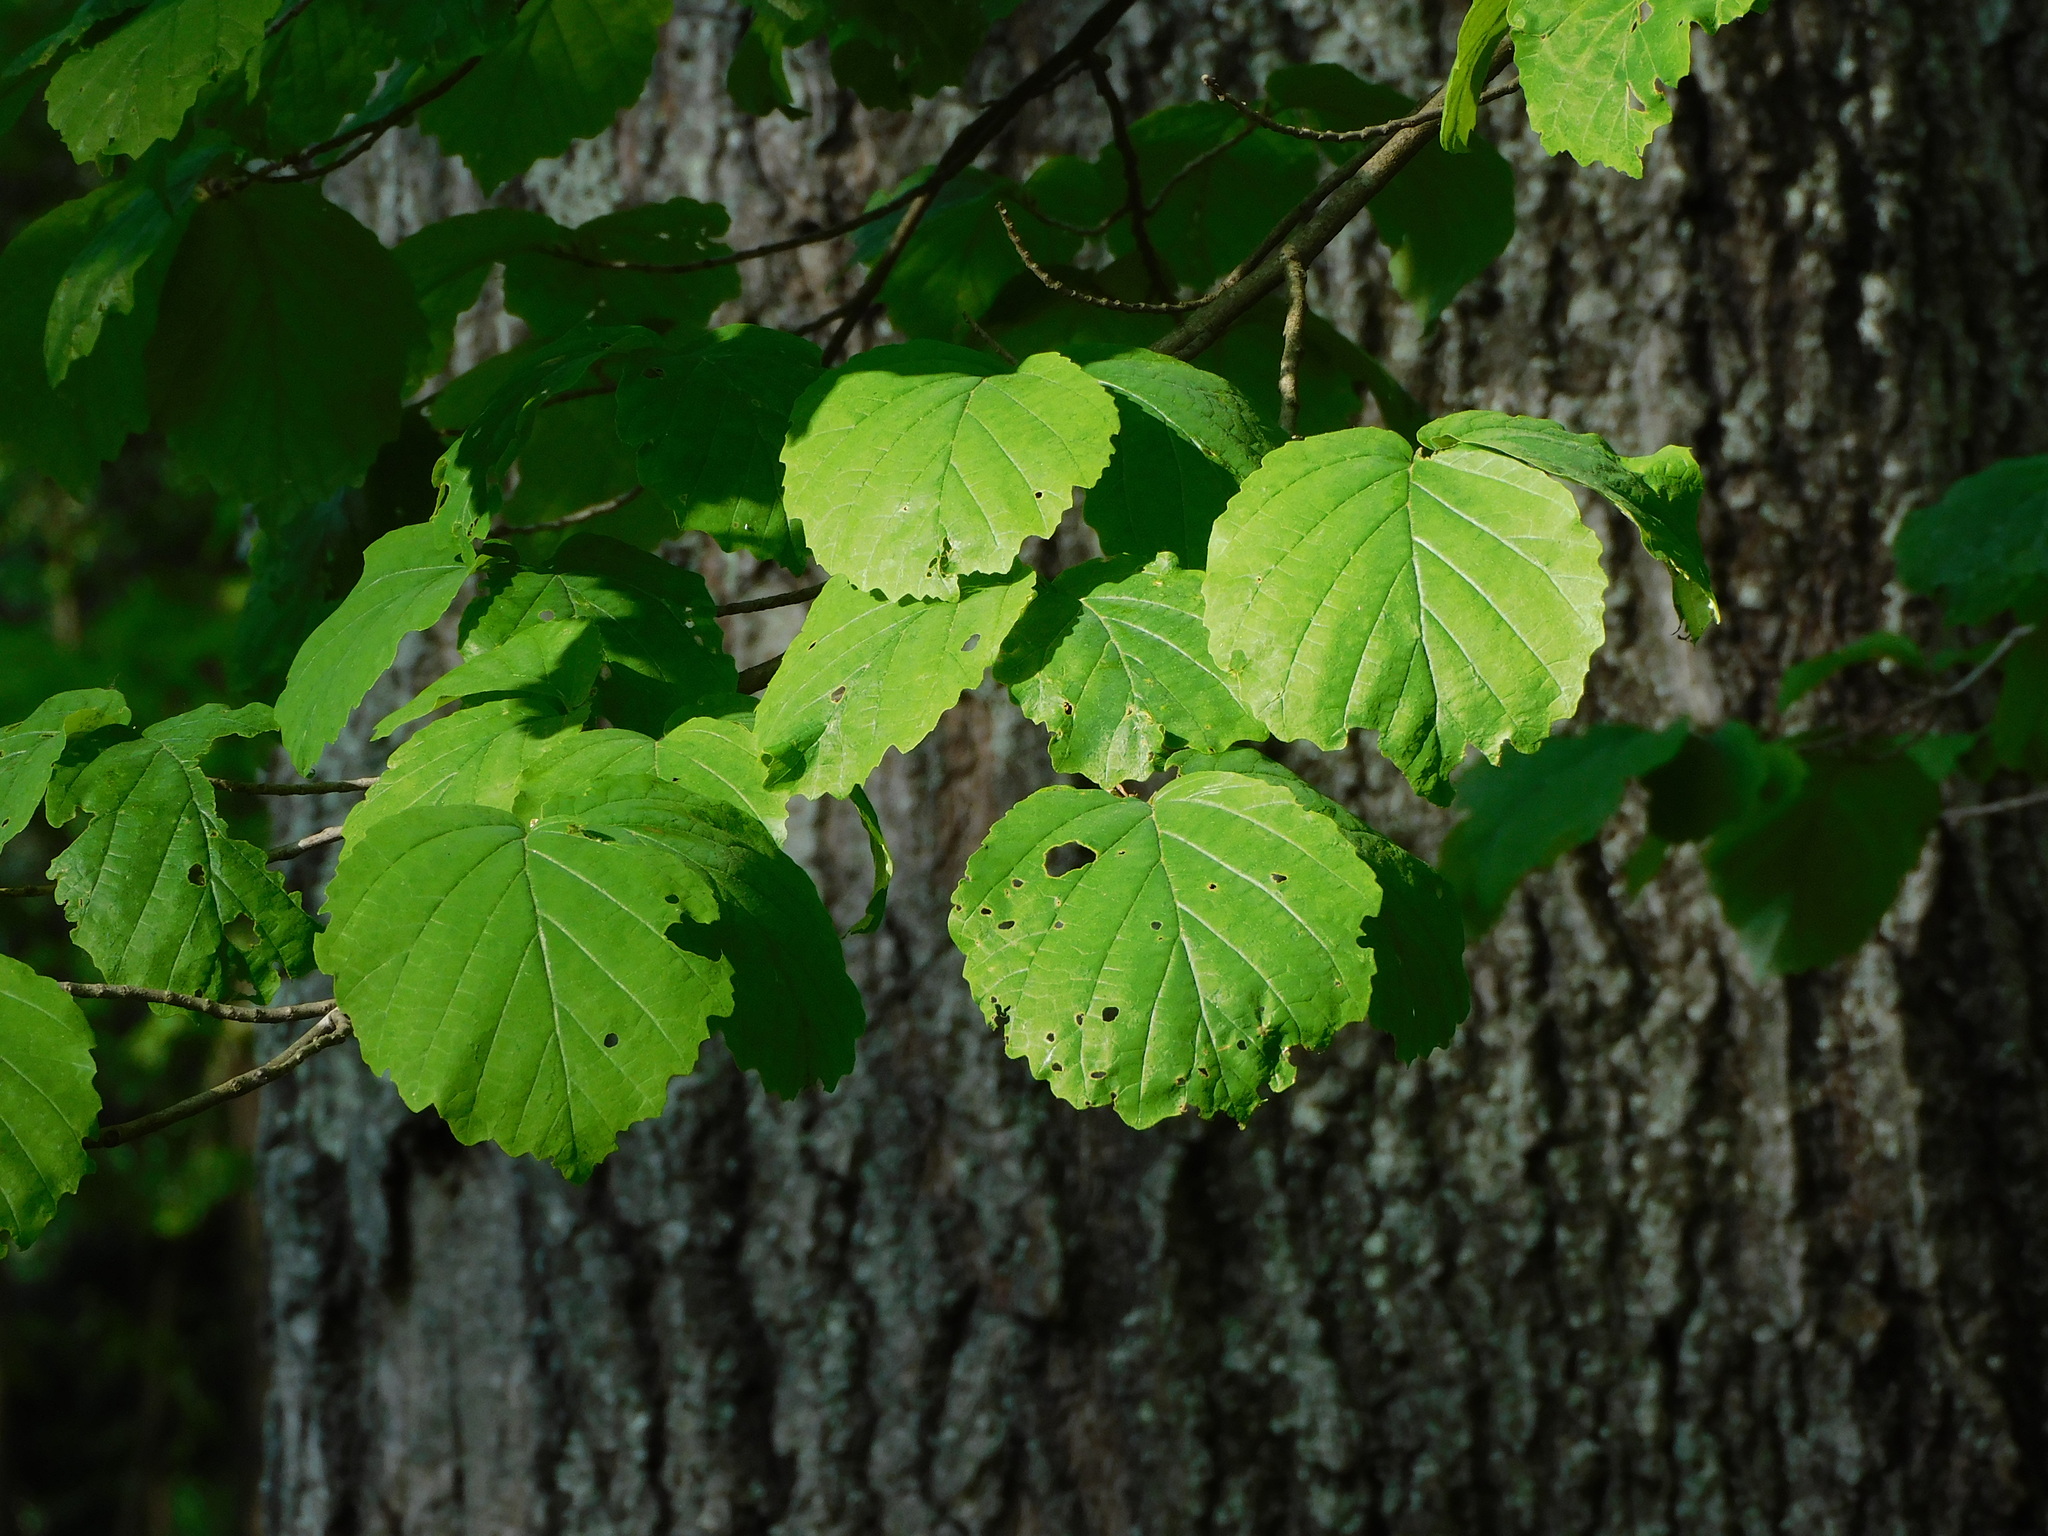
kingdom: Plantae
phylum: Tracheophyta
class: Magnoliopsida
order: Saxifragales
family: Hamamelidaceae
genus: Hamamelis
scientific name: Hamamelis virginiana
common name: Witch-hazel
